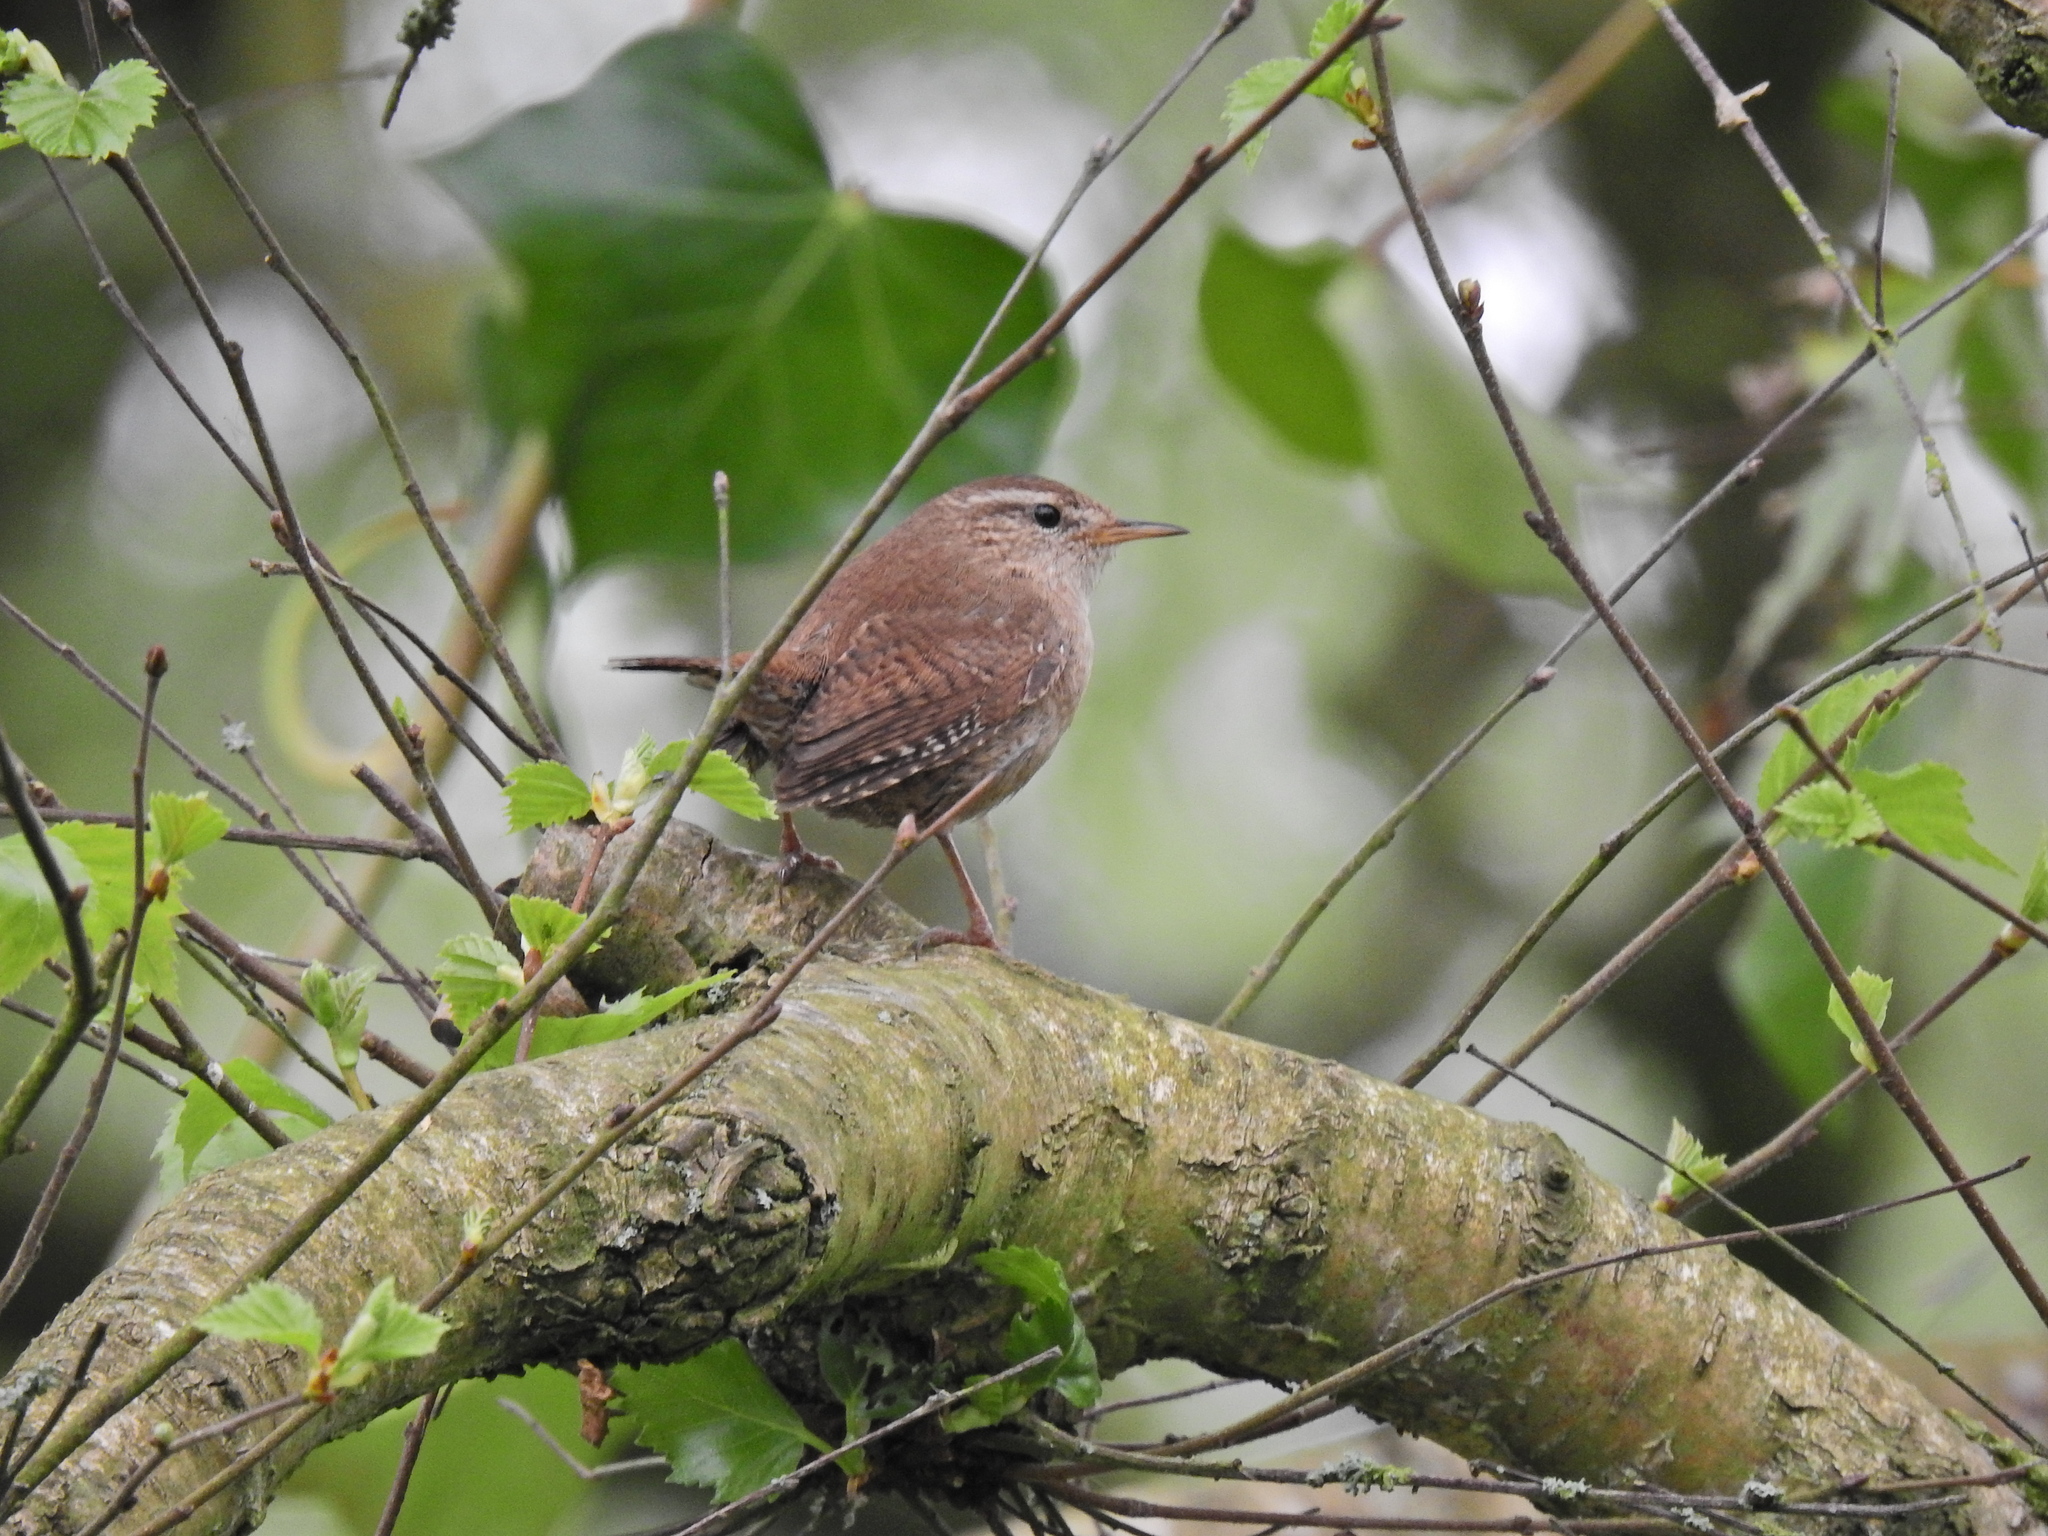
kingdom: Animalia
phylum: Chordata
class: Aves
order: Passeriformes
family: Troglodytidae
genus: Troglodytes
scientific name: Troglodytes troglodytes
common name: Eurasian wren
